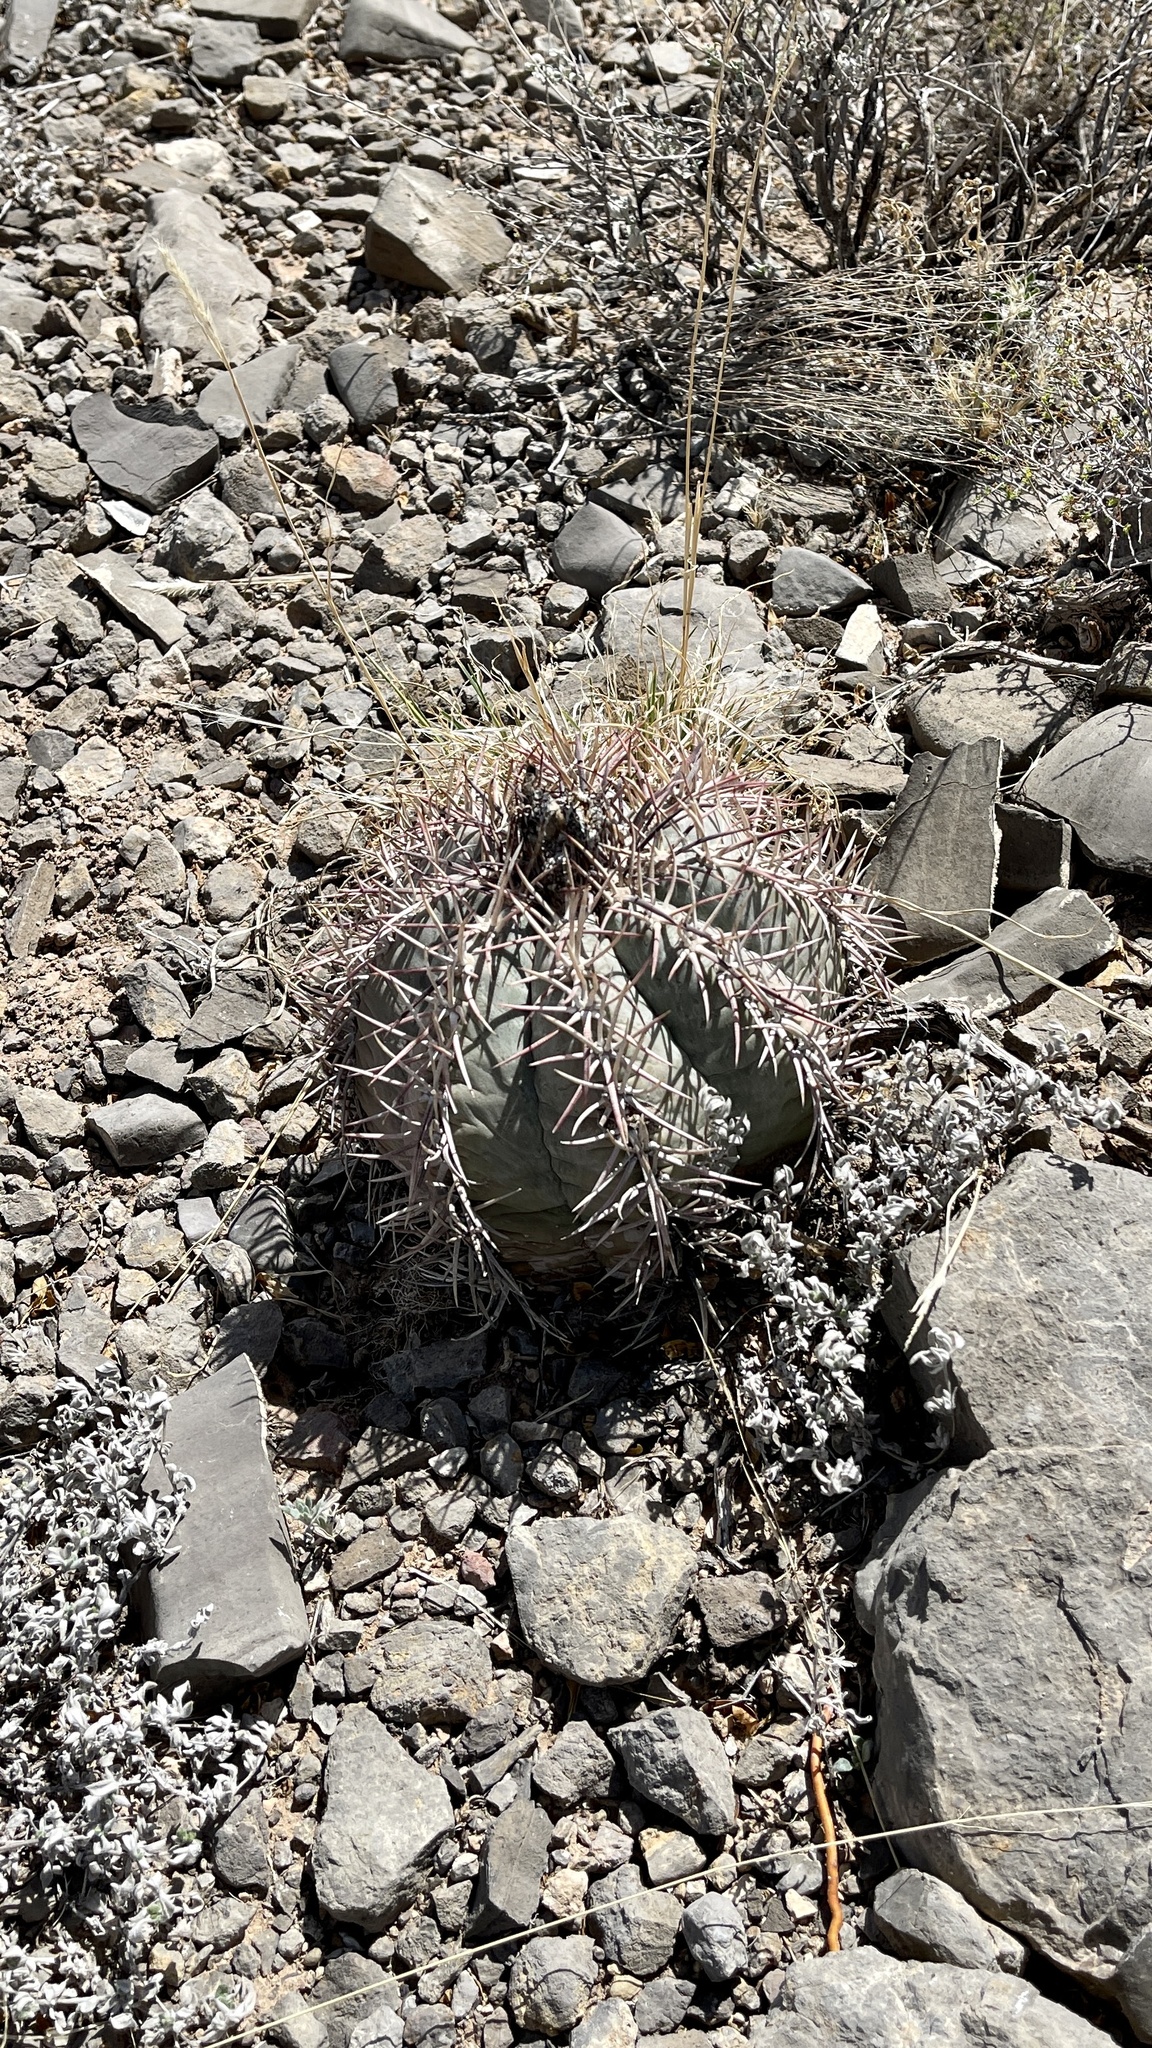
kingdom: Plantae
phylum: Tracheophyta
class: Magnoliopsida
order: Caryophyllales
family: Cactaceae
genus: Echinocactus
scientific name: Echinocactus horizonthalonius
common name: Devilshead
